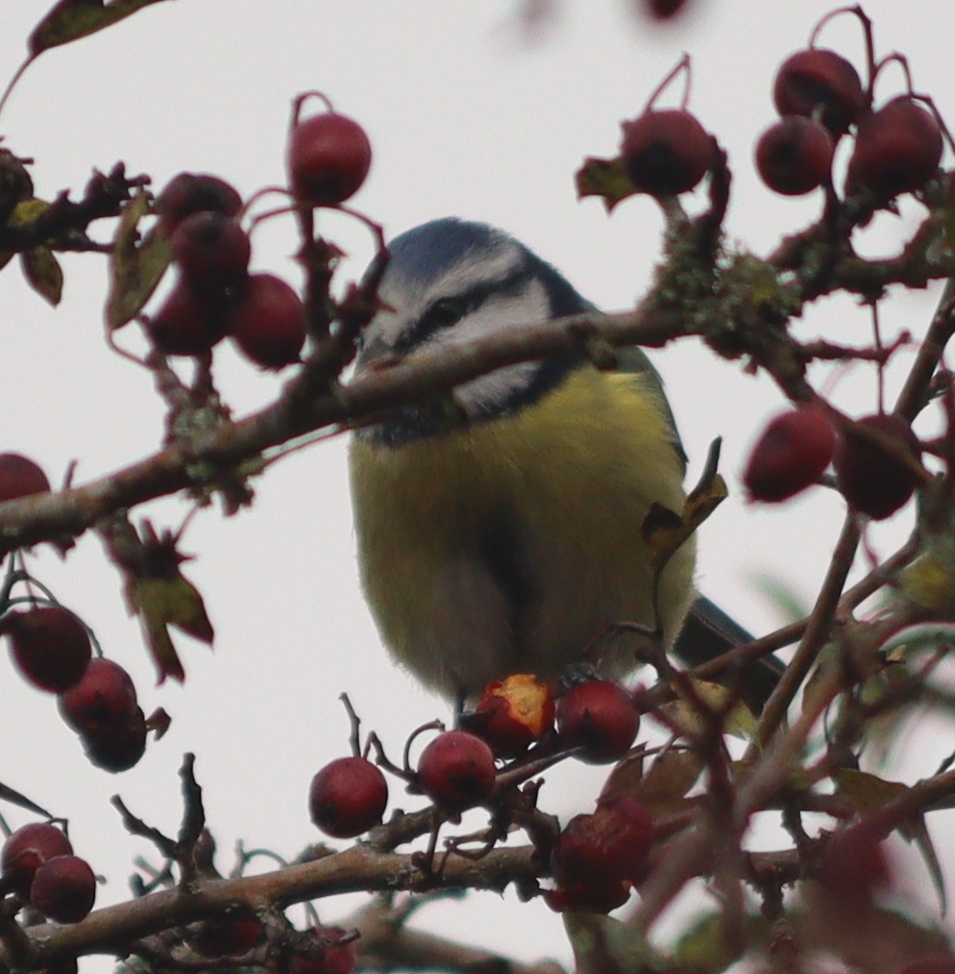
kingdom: Animalia
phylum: Chordata
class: Aves
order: Passeriformes
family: Paridae
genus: Cyanistes
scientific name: Cyanistes caeruleus
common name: Eurasian blue tit
